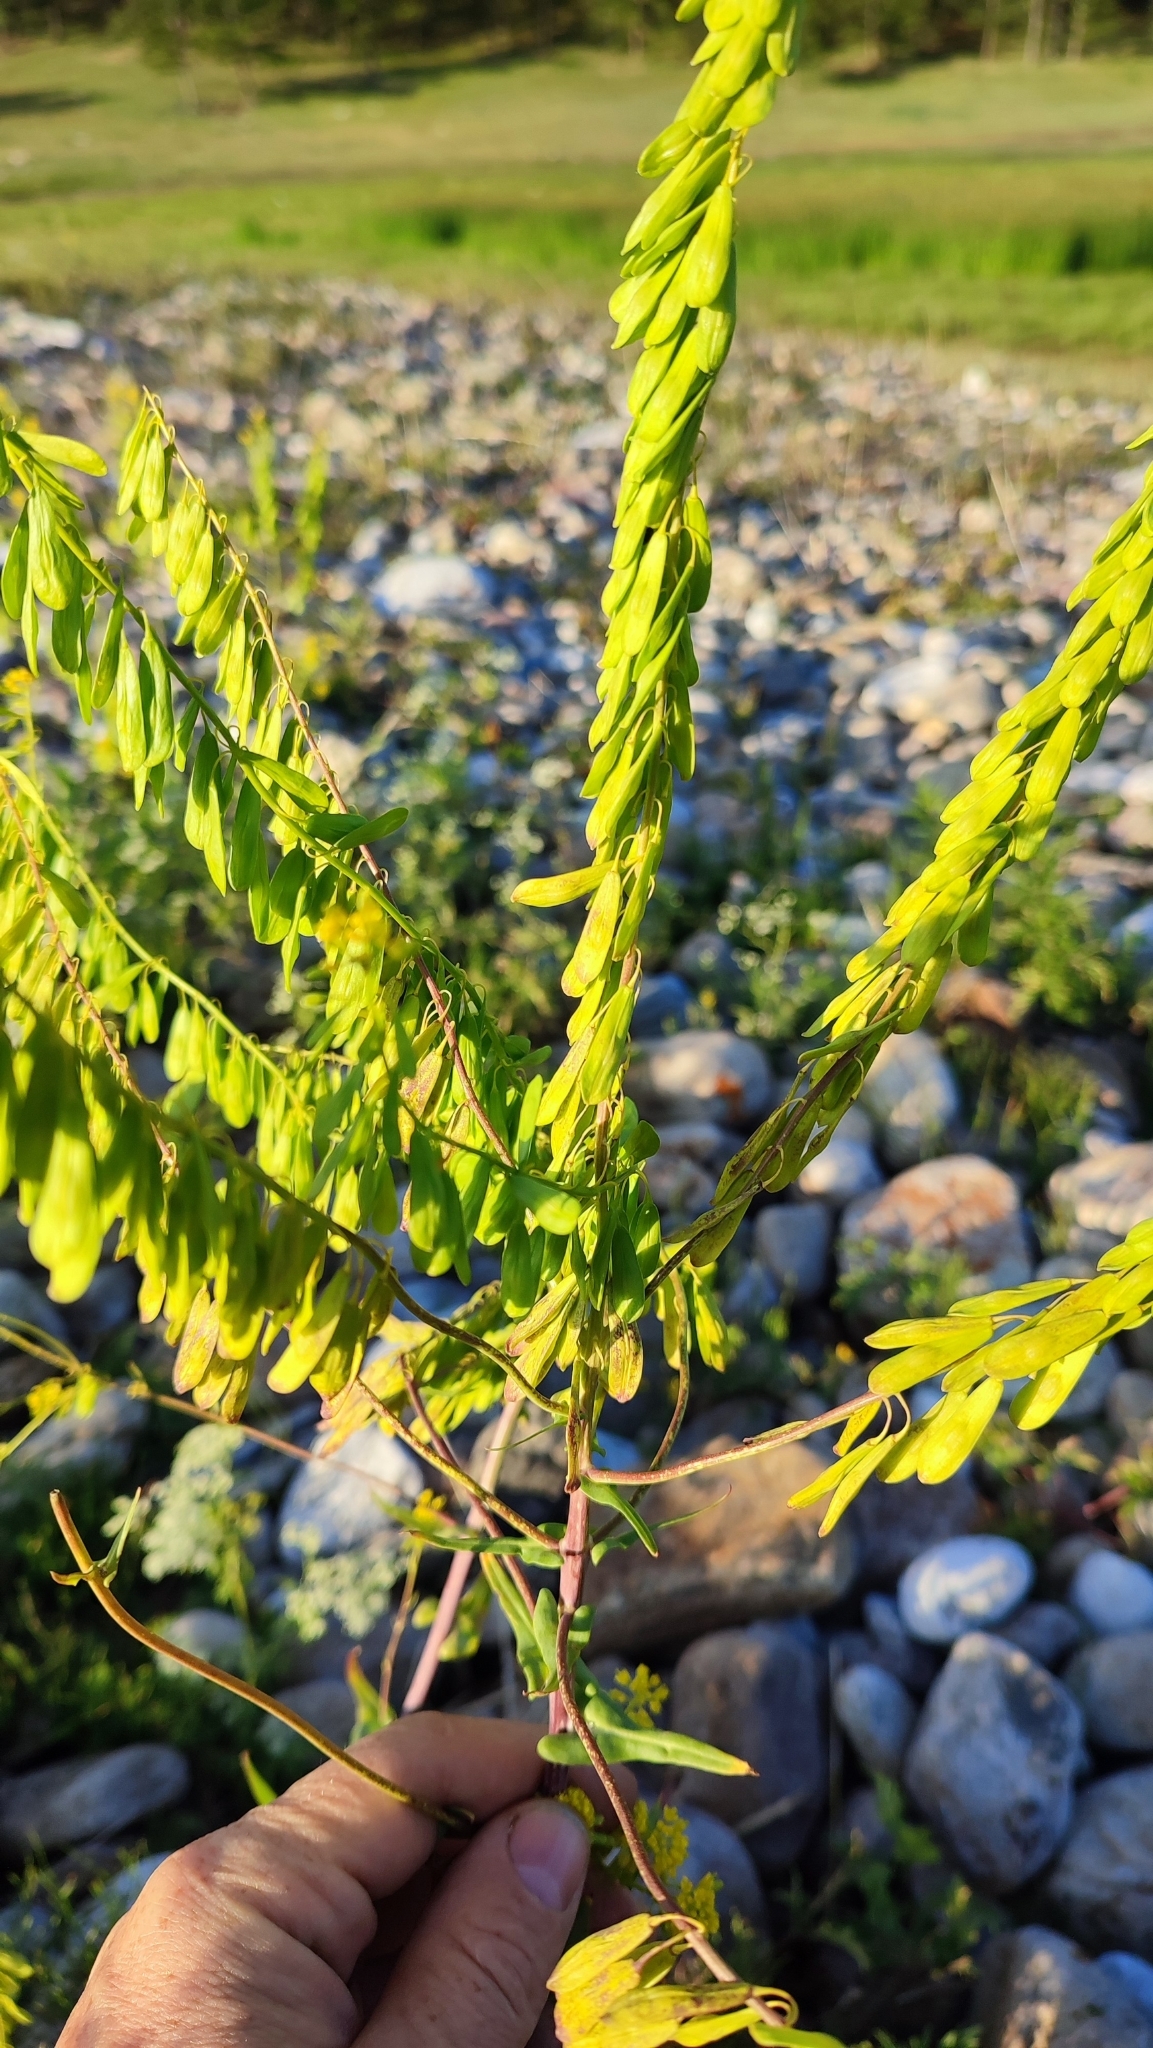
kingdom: Plantae
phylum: Tracheophyta
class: Magnoliopsida
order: Brassicales
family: Brassicaceae
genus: Isatis
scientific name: Isatis tinctoria
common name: Woad
